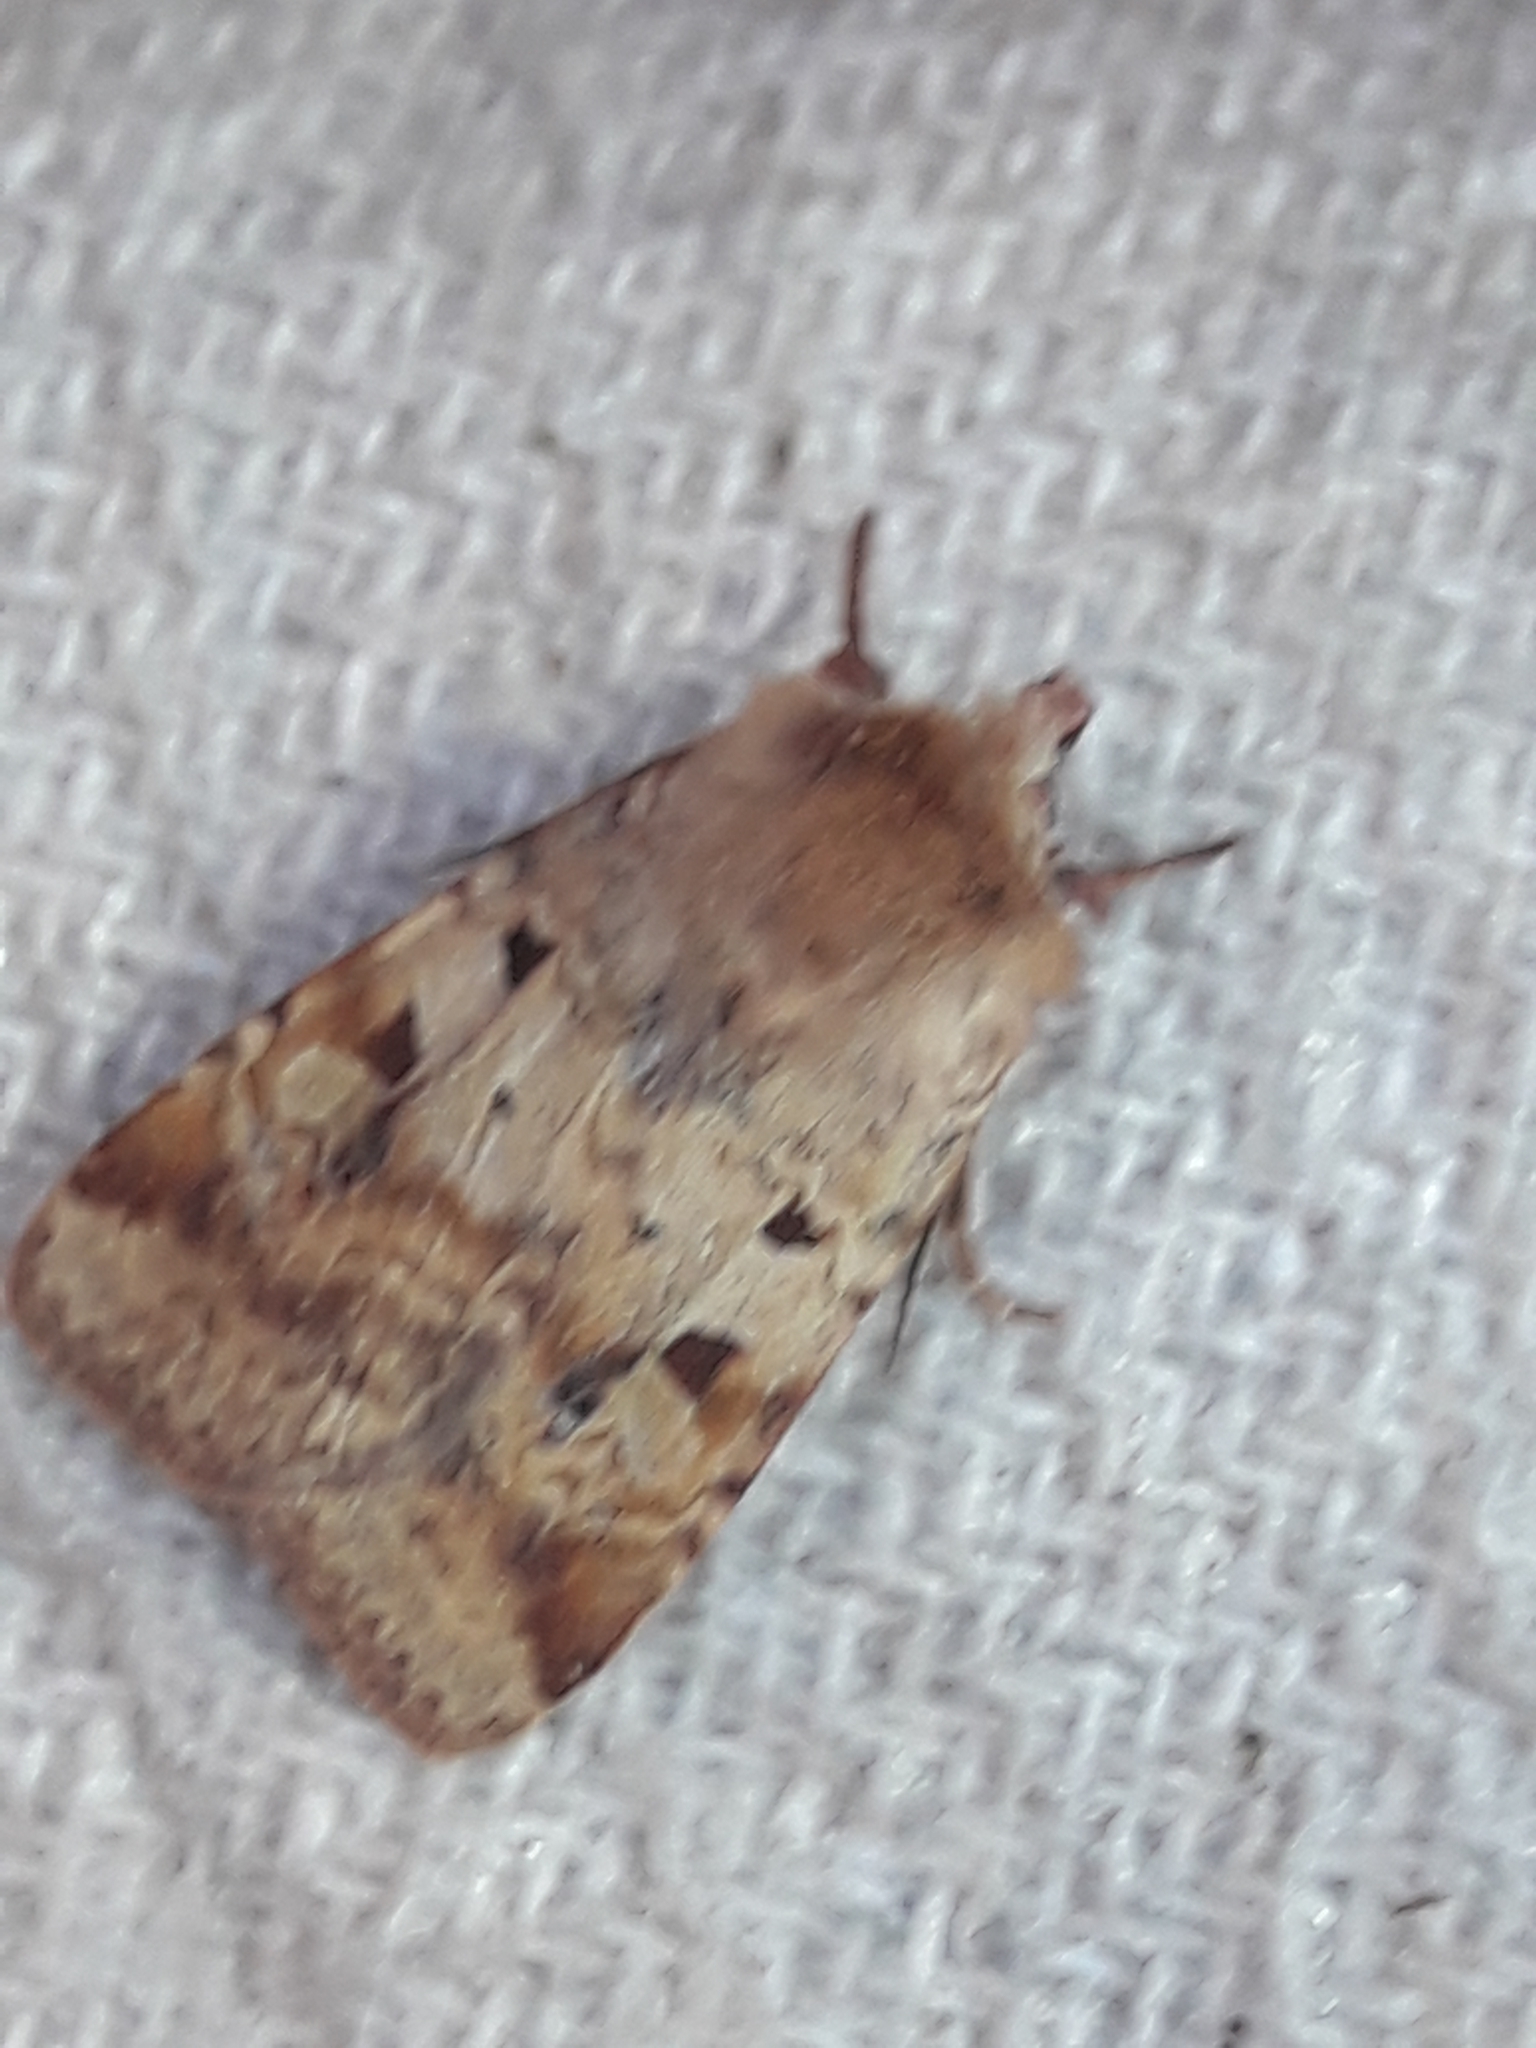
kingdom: Animalia
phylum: Arthropoda
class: Insecta
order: Lepidoptera
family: Noctuidae
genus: Diarsia
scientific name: Diarsia mendica
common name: Ingrailed clay
